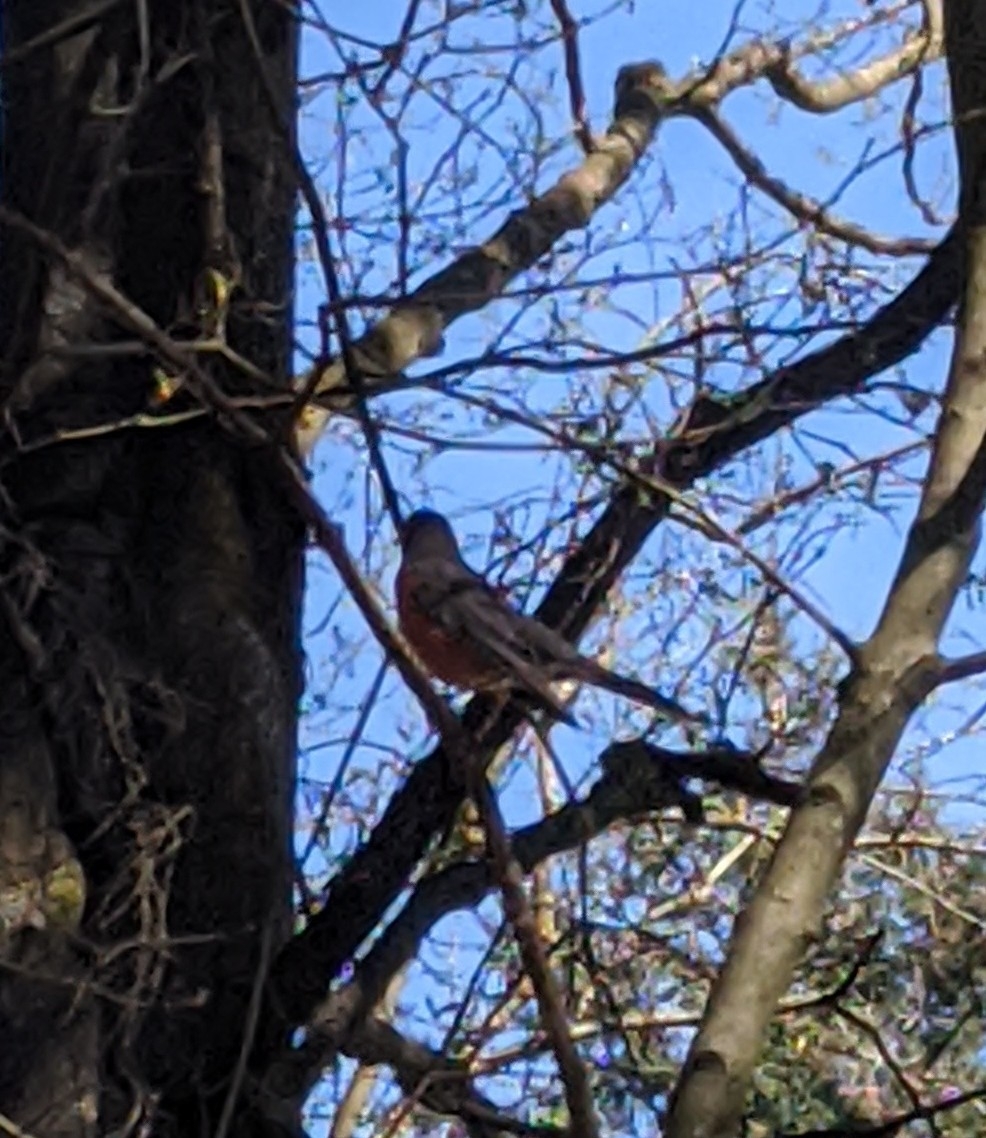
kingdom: Animalia
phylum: Chordata
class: Aves
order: Passeriformes
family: Turdidae
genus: Turdus
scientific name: Turdus migratorius
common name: American robin
